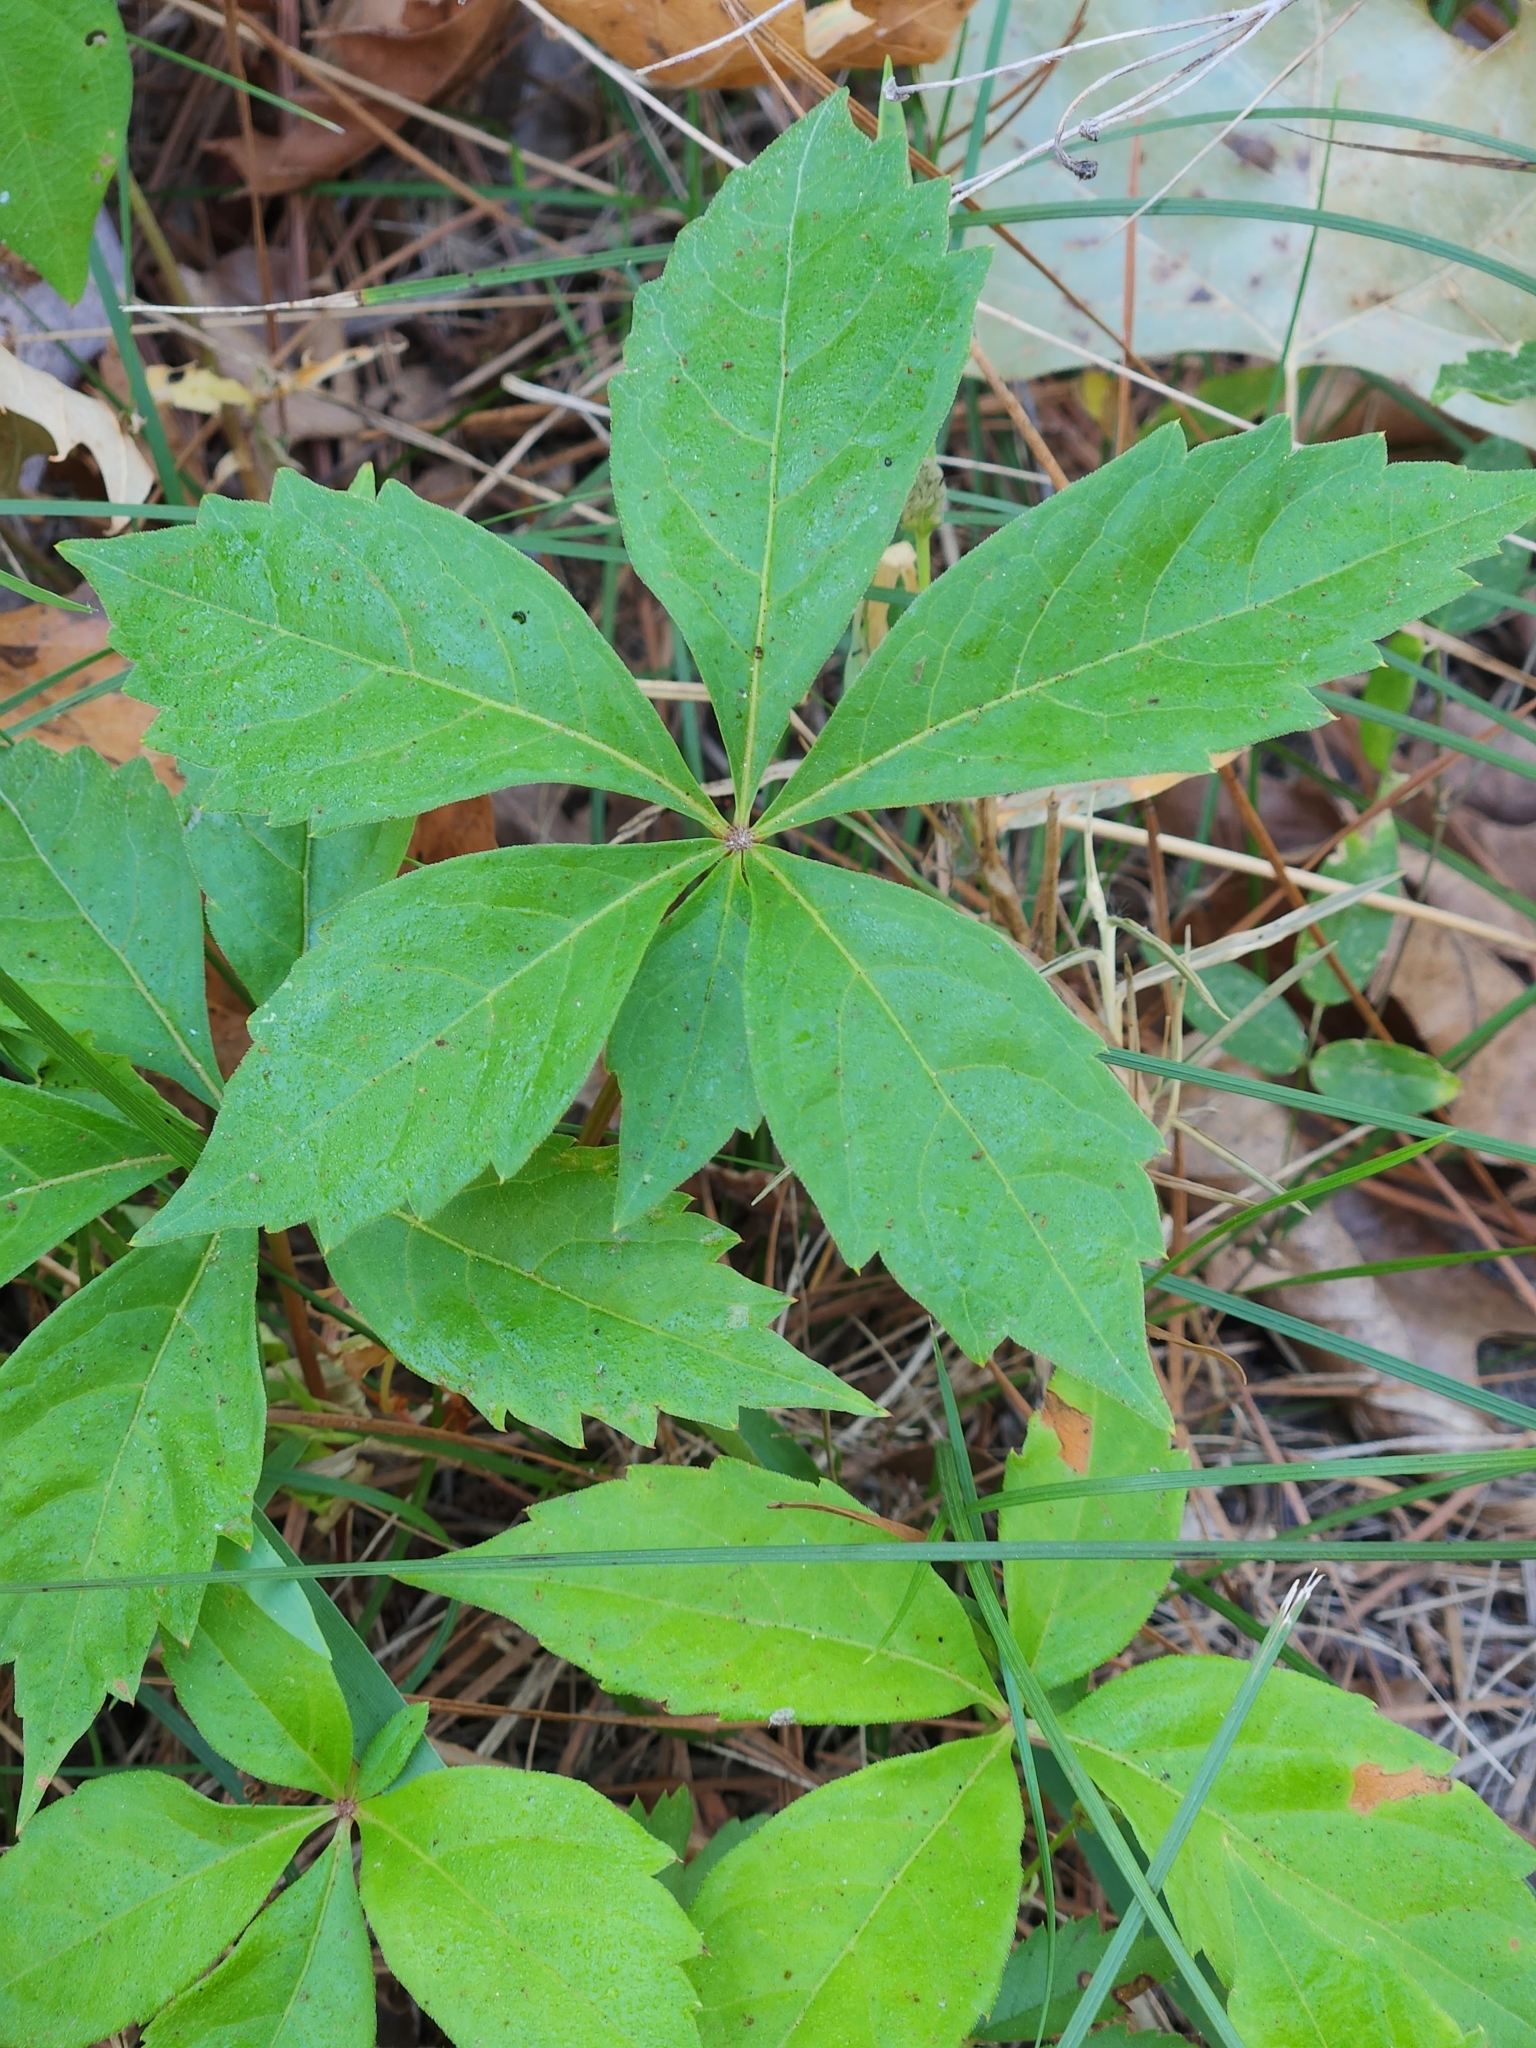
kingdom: Plantae
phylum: Tracheophyta
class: Magnoliopsida
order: Vitales
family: Vitaceae
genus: Parthenocissus
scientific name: Parthenocissus quinquefolia
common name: Virginia-creeper
